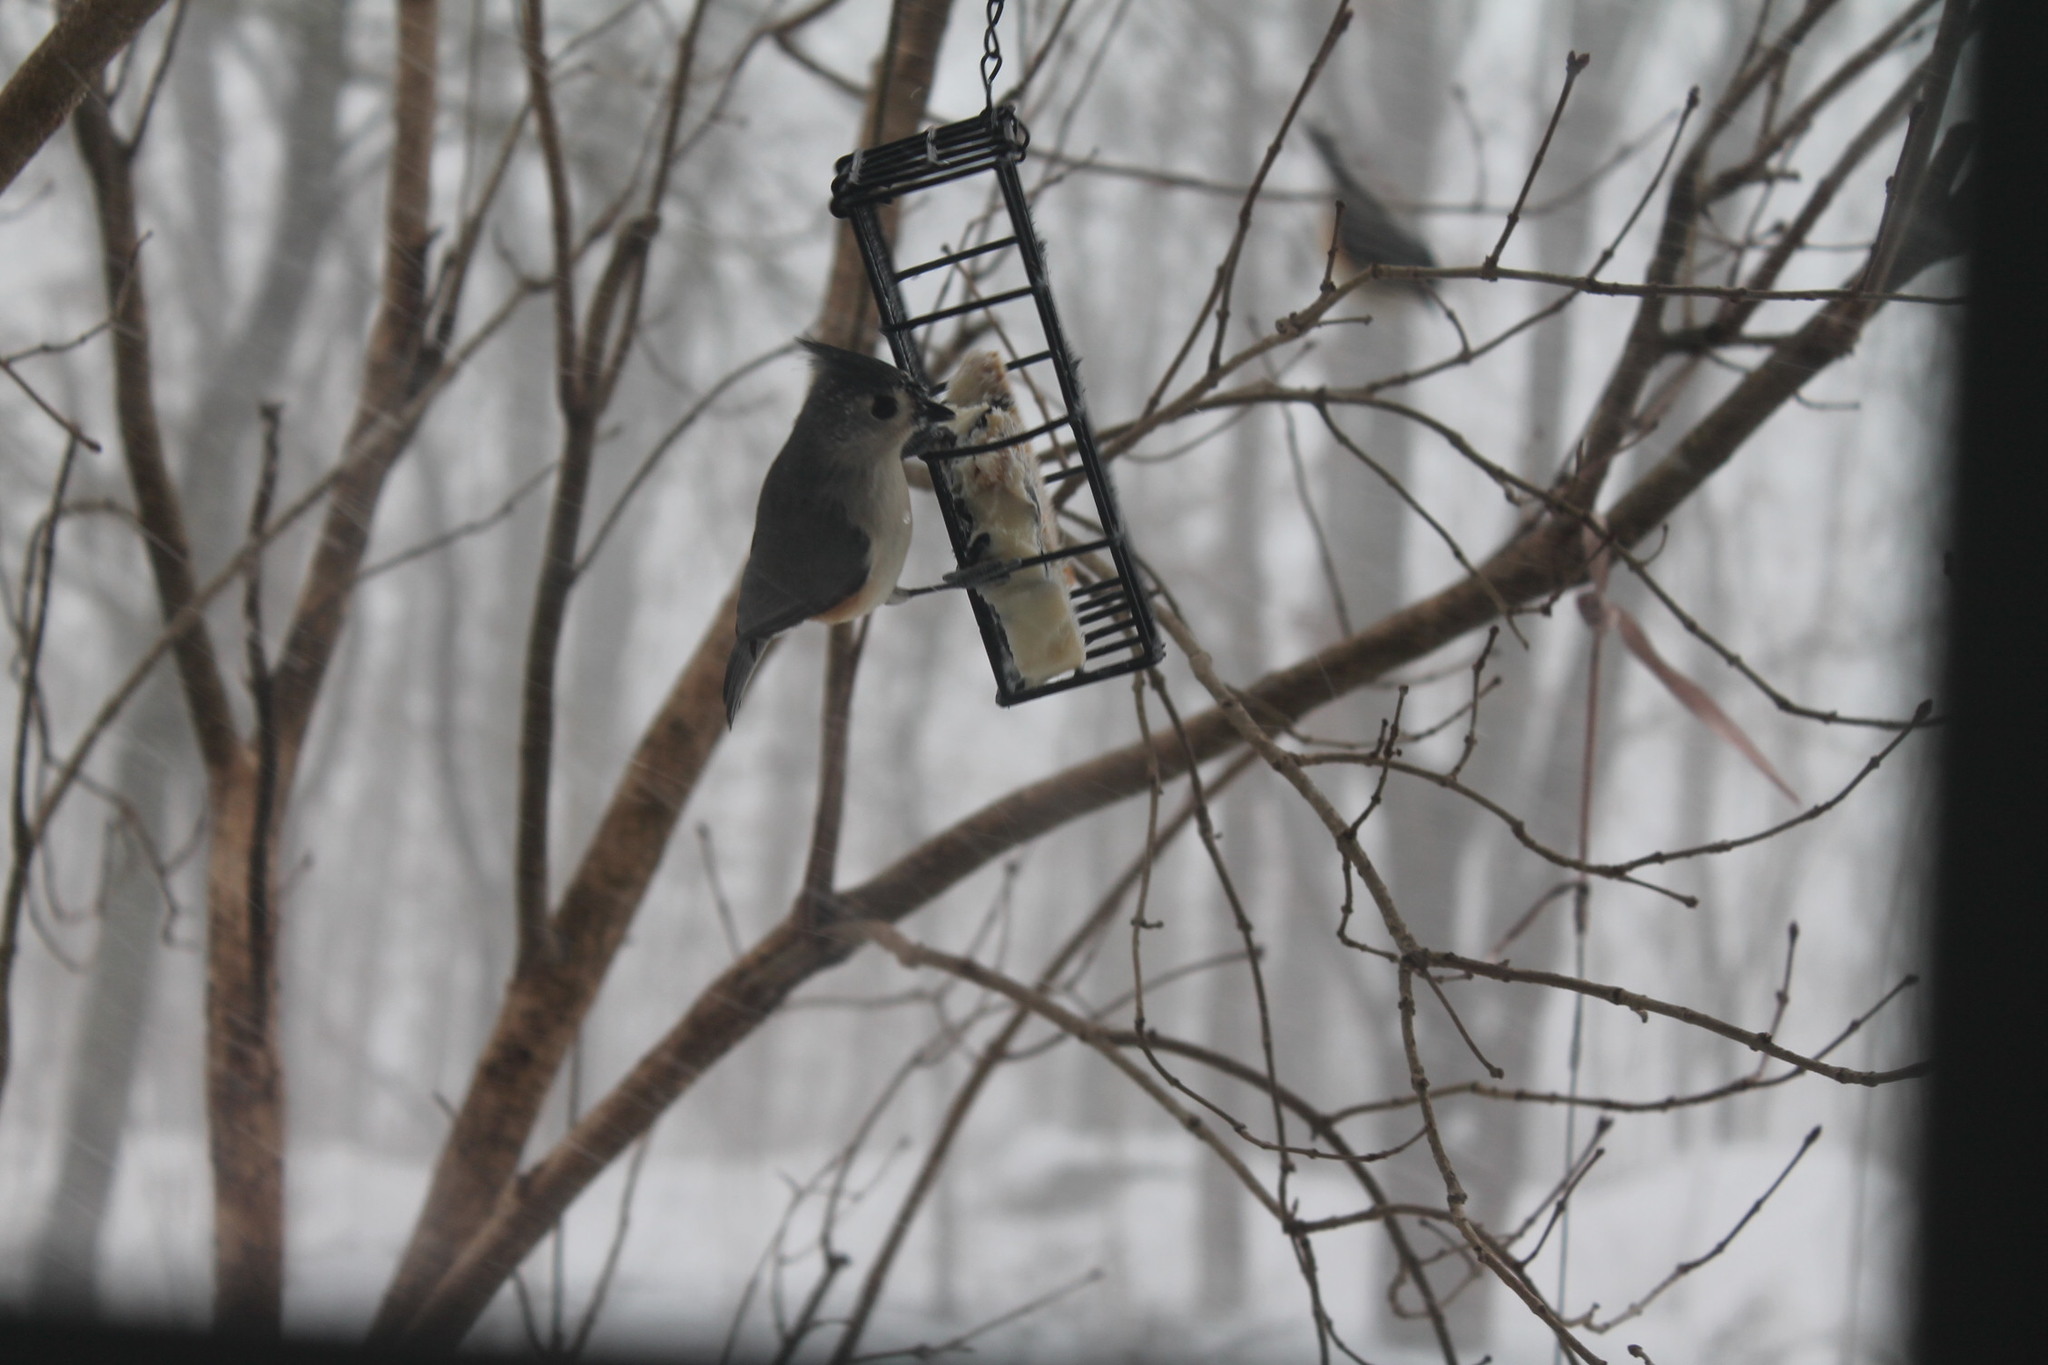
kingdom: Animalia
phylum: Chordata
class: Aves
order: Passeriformes
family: Paridae
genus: Baeolophus
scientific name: Baeolophus bicolor
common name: Tufted titmouse
